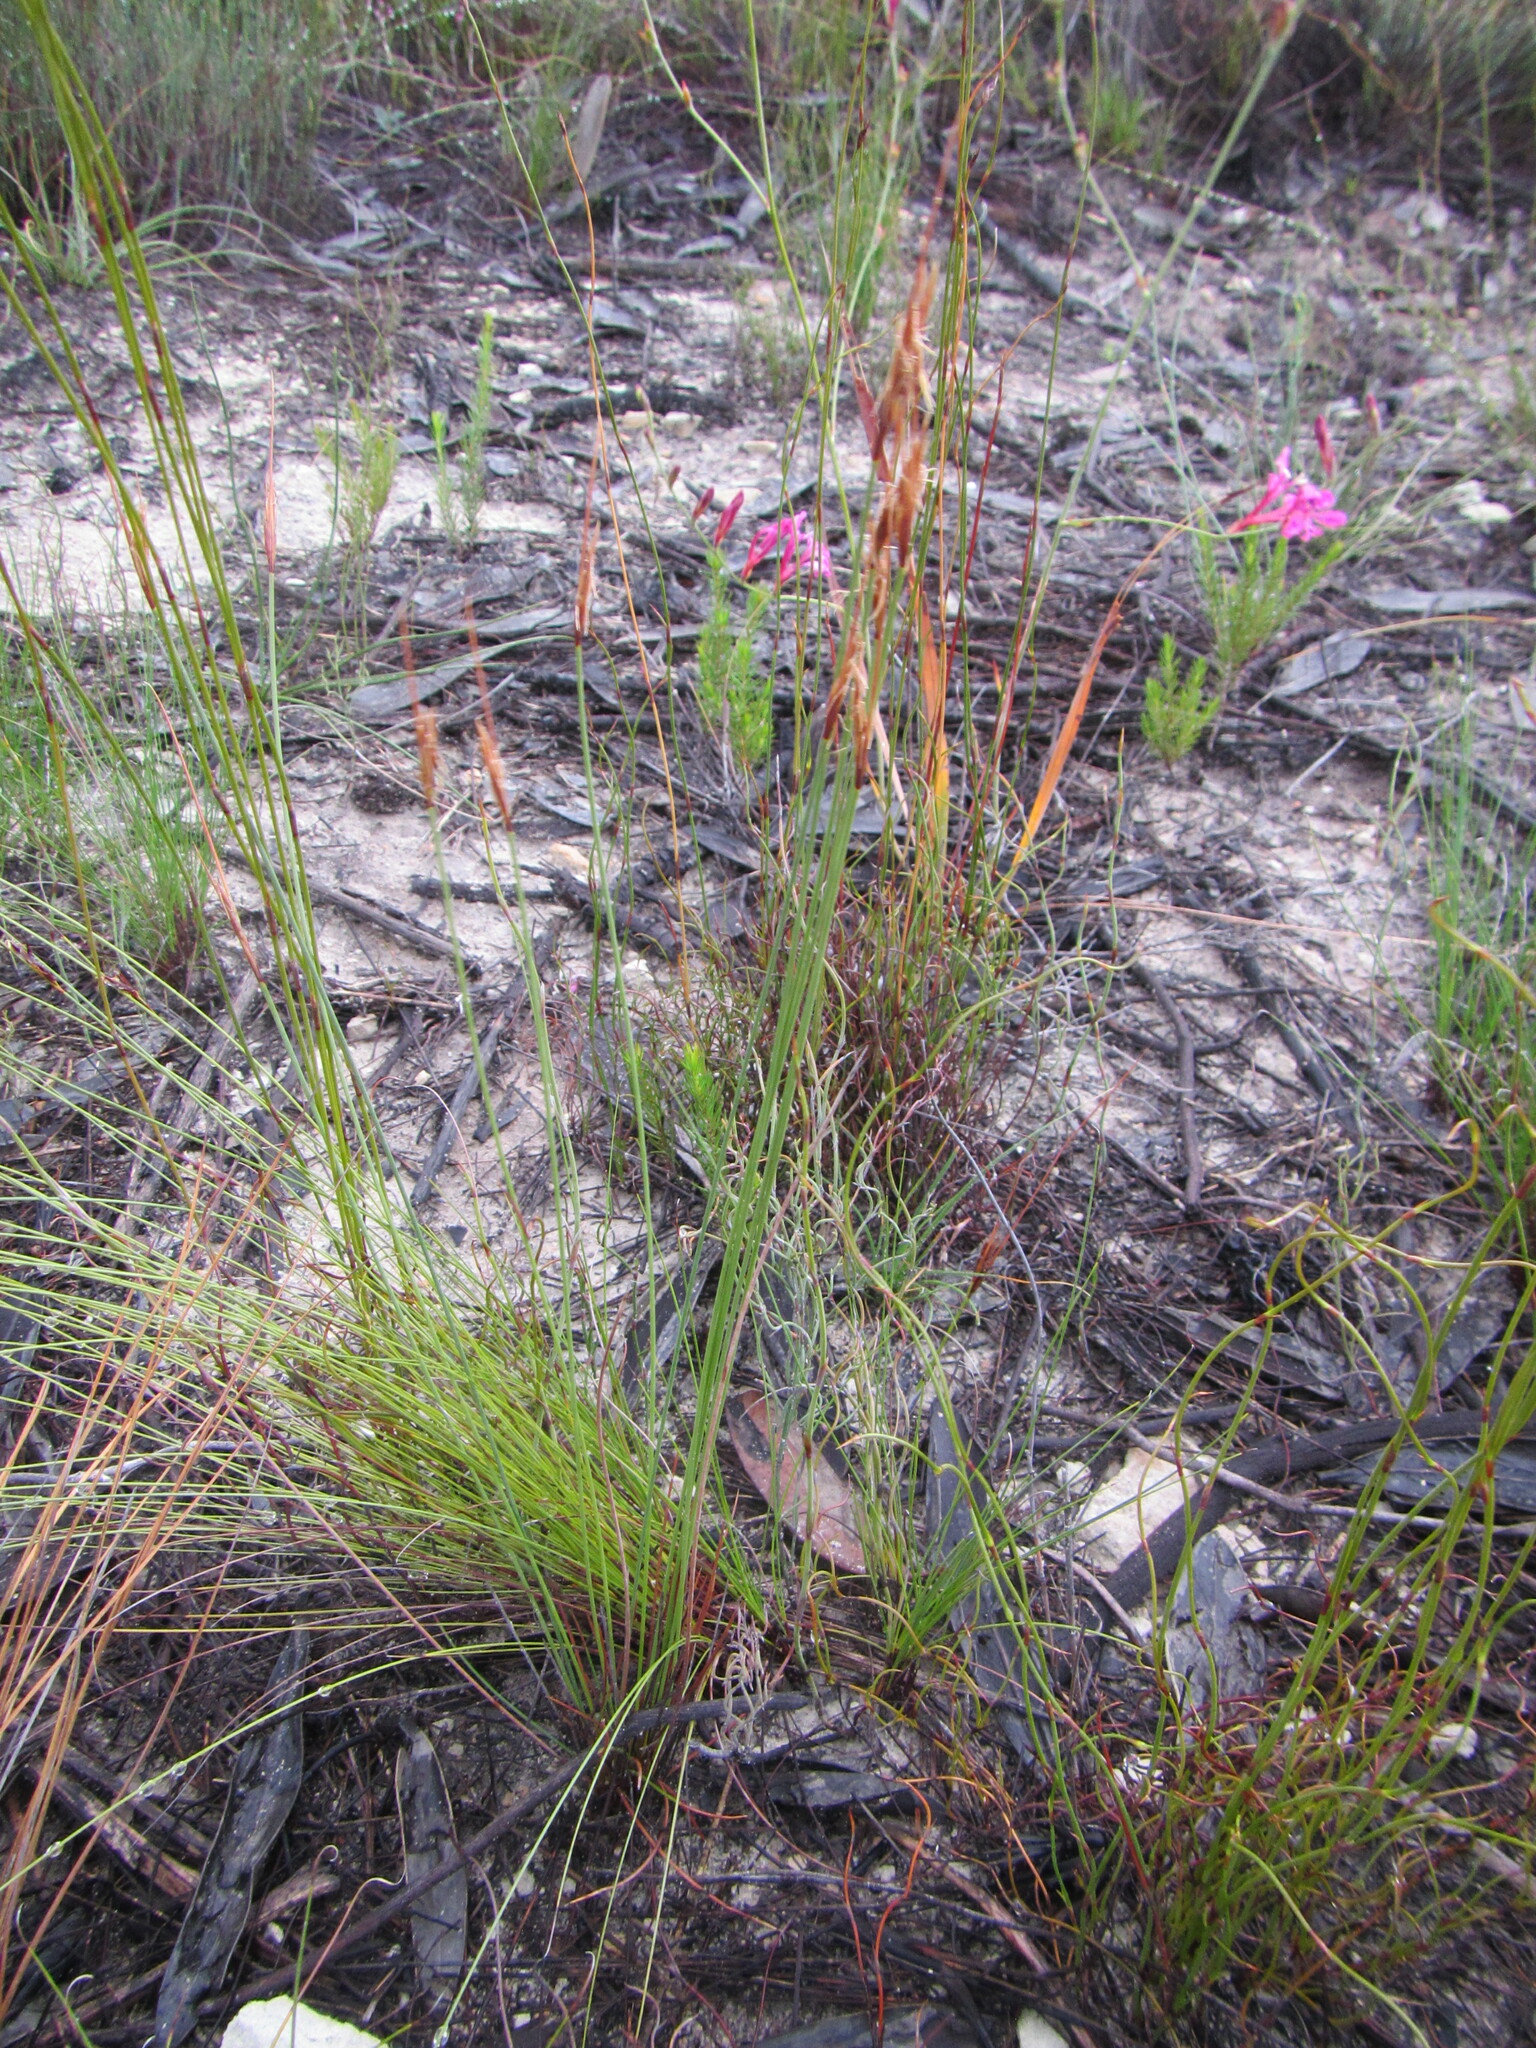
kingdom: Plantae
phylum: Tracheophyta
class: Liliopsida
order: Poales
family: Cyperaceae
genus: Schoenus
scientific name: Schoenus pictus
